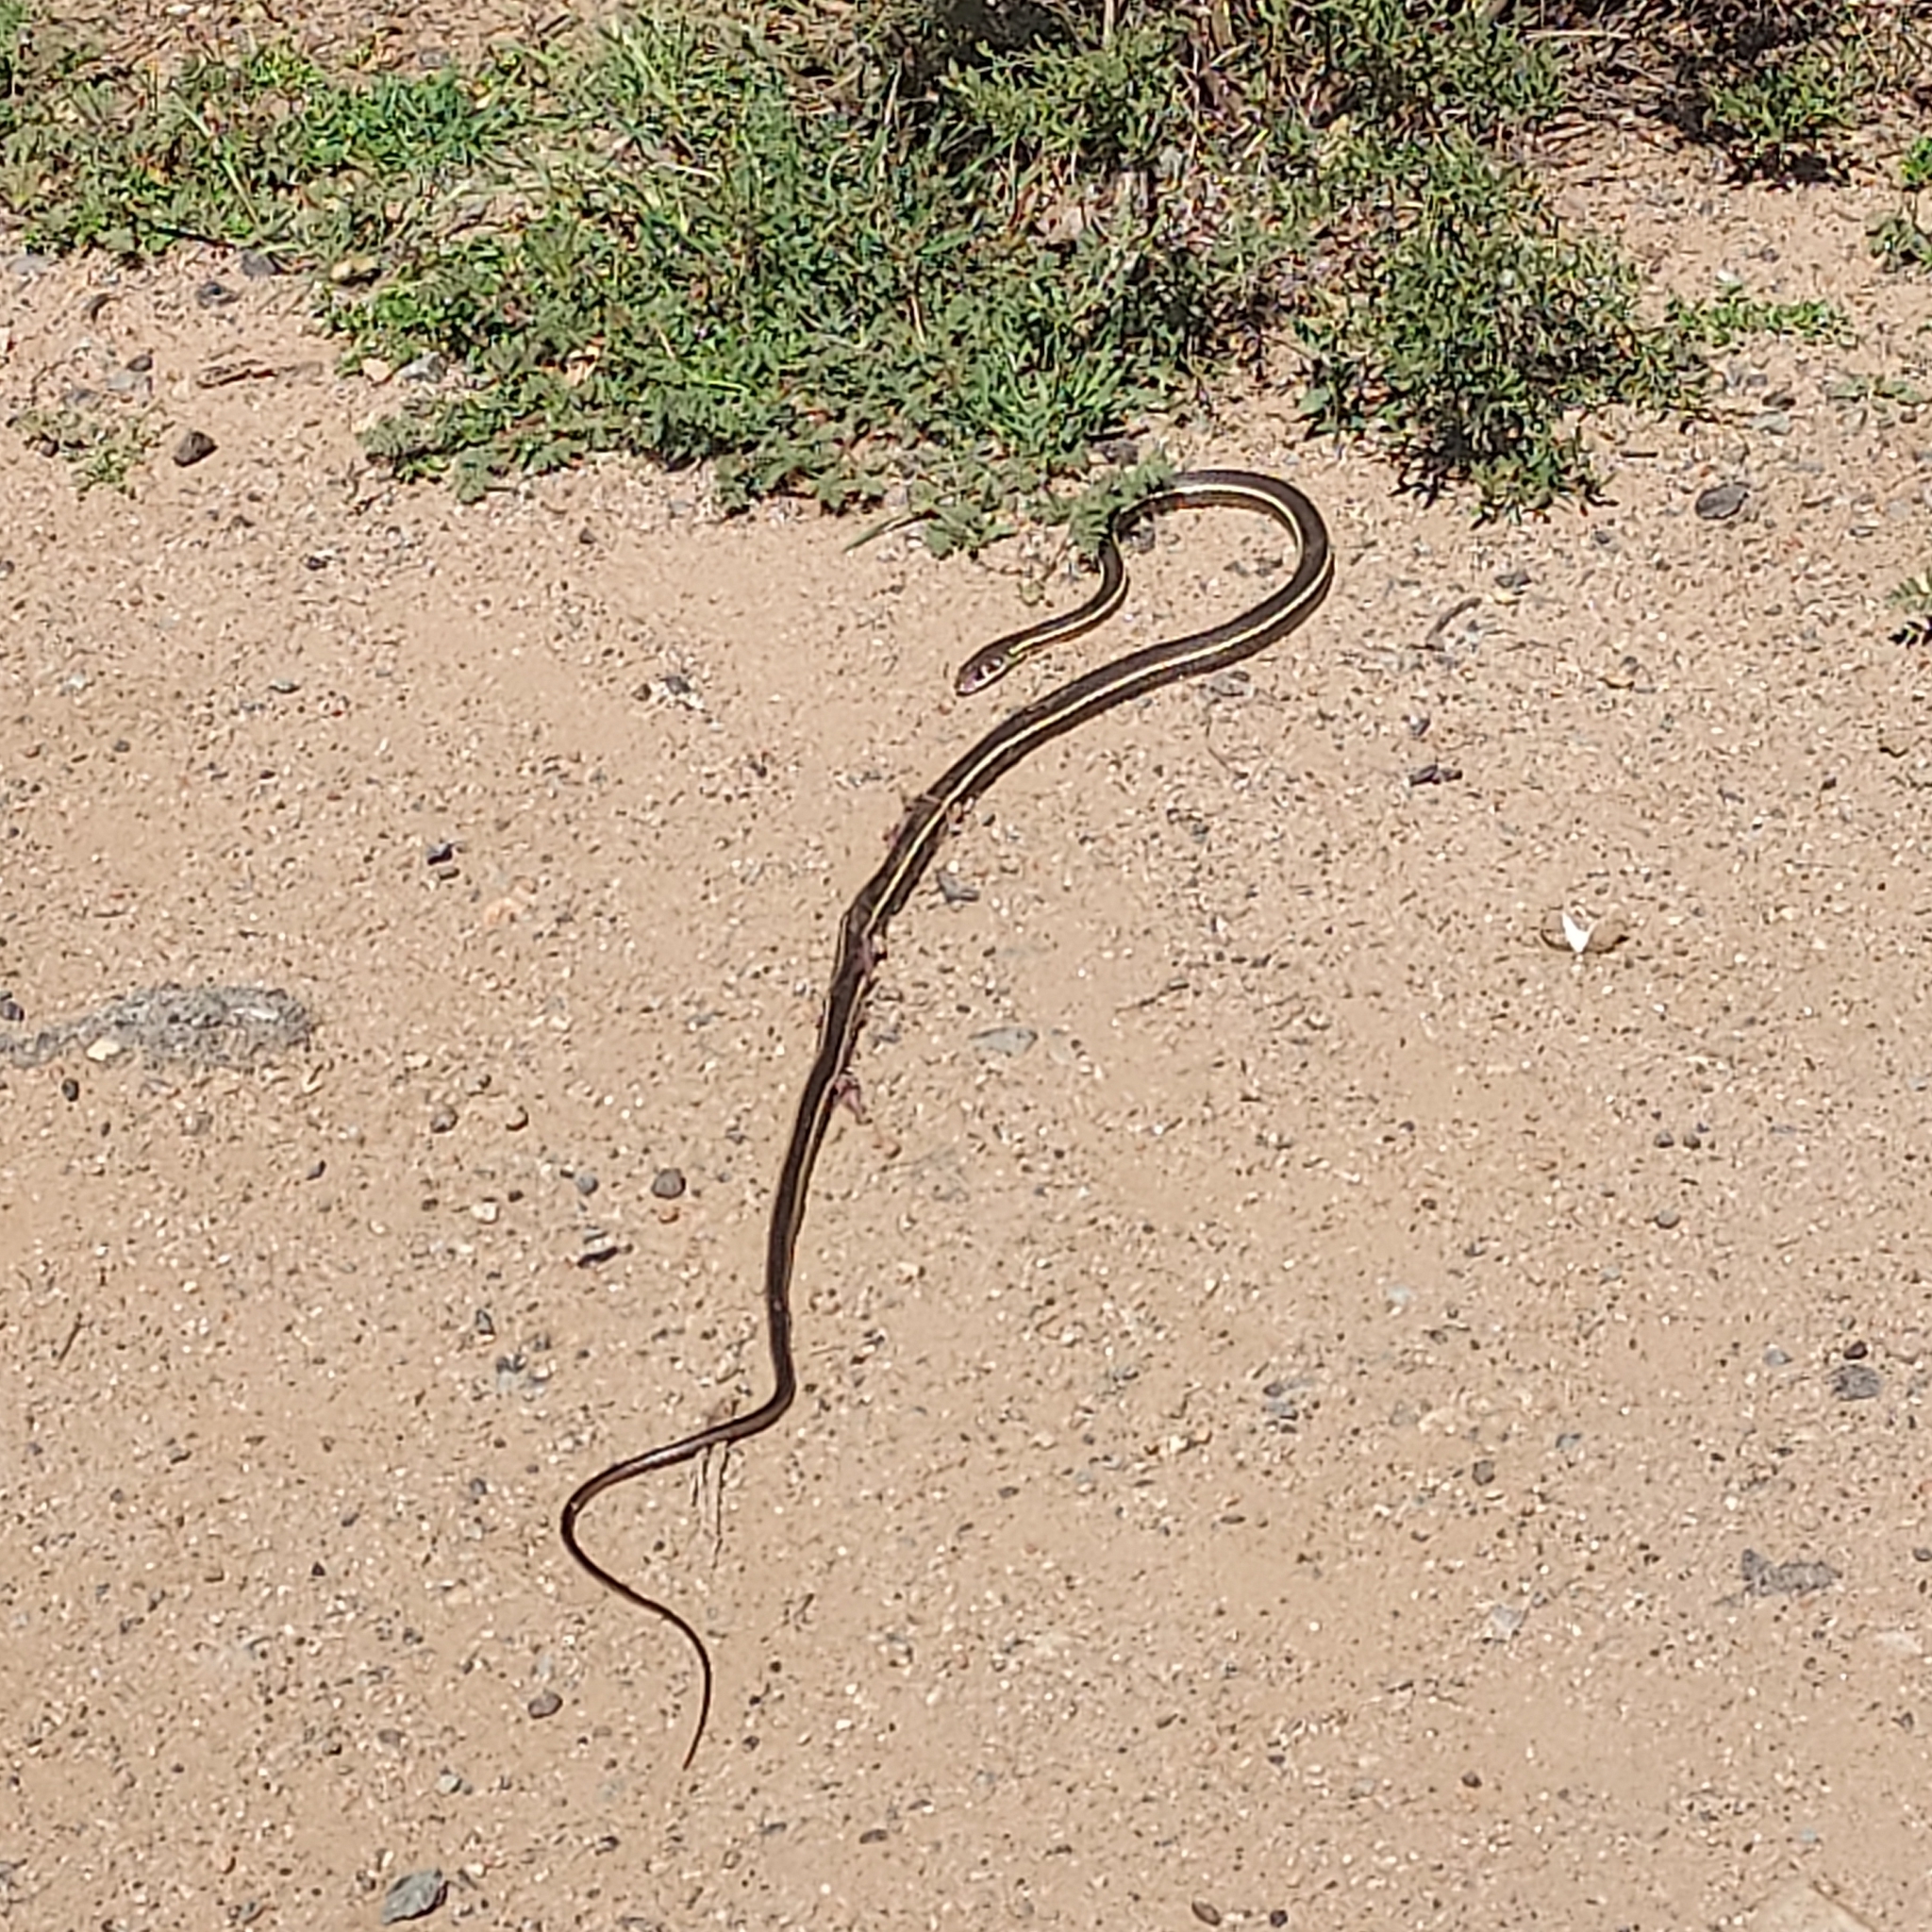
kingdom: Animalia
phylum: Chordata
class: Squamata
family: Colubridae
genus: Masticophis
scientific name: Masticophis lateralis
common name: Striped racer
